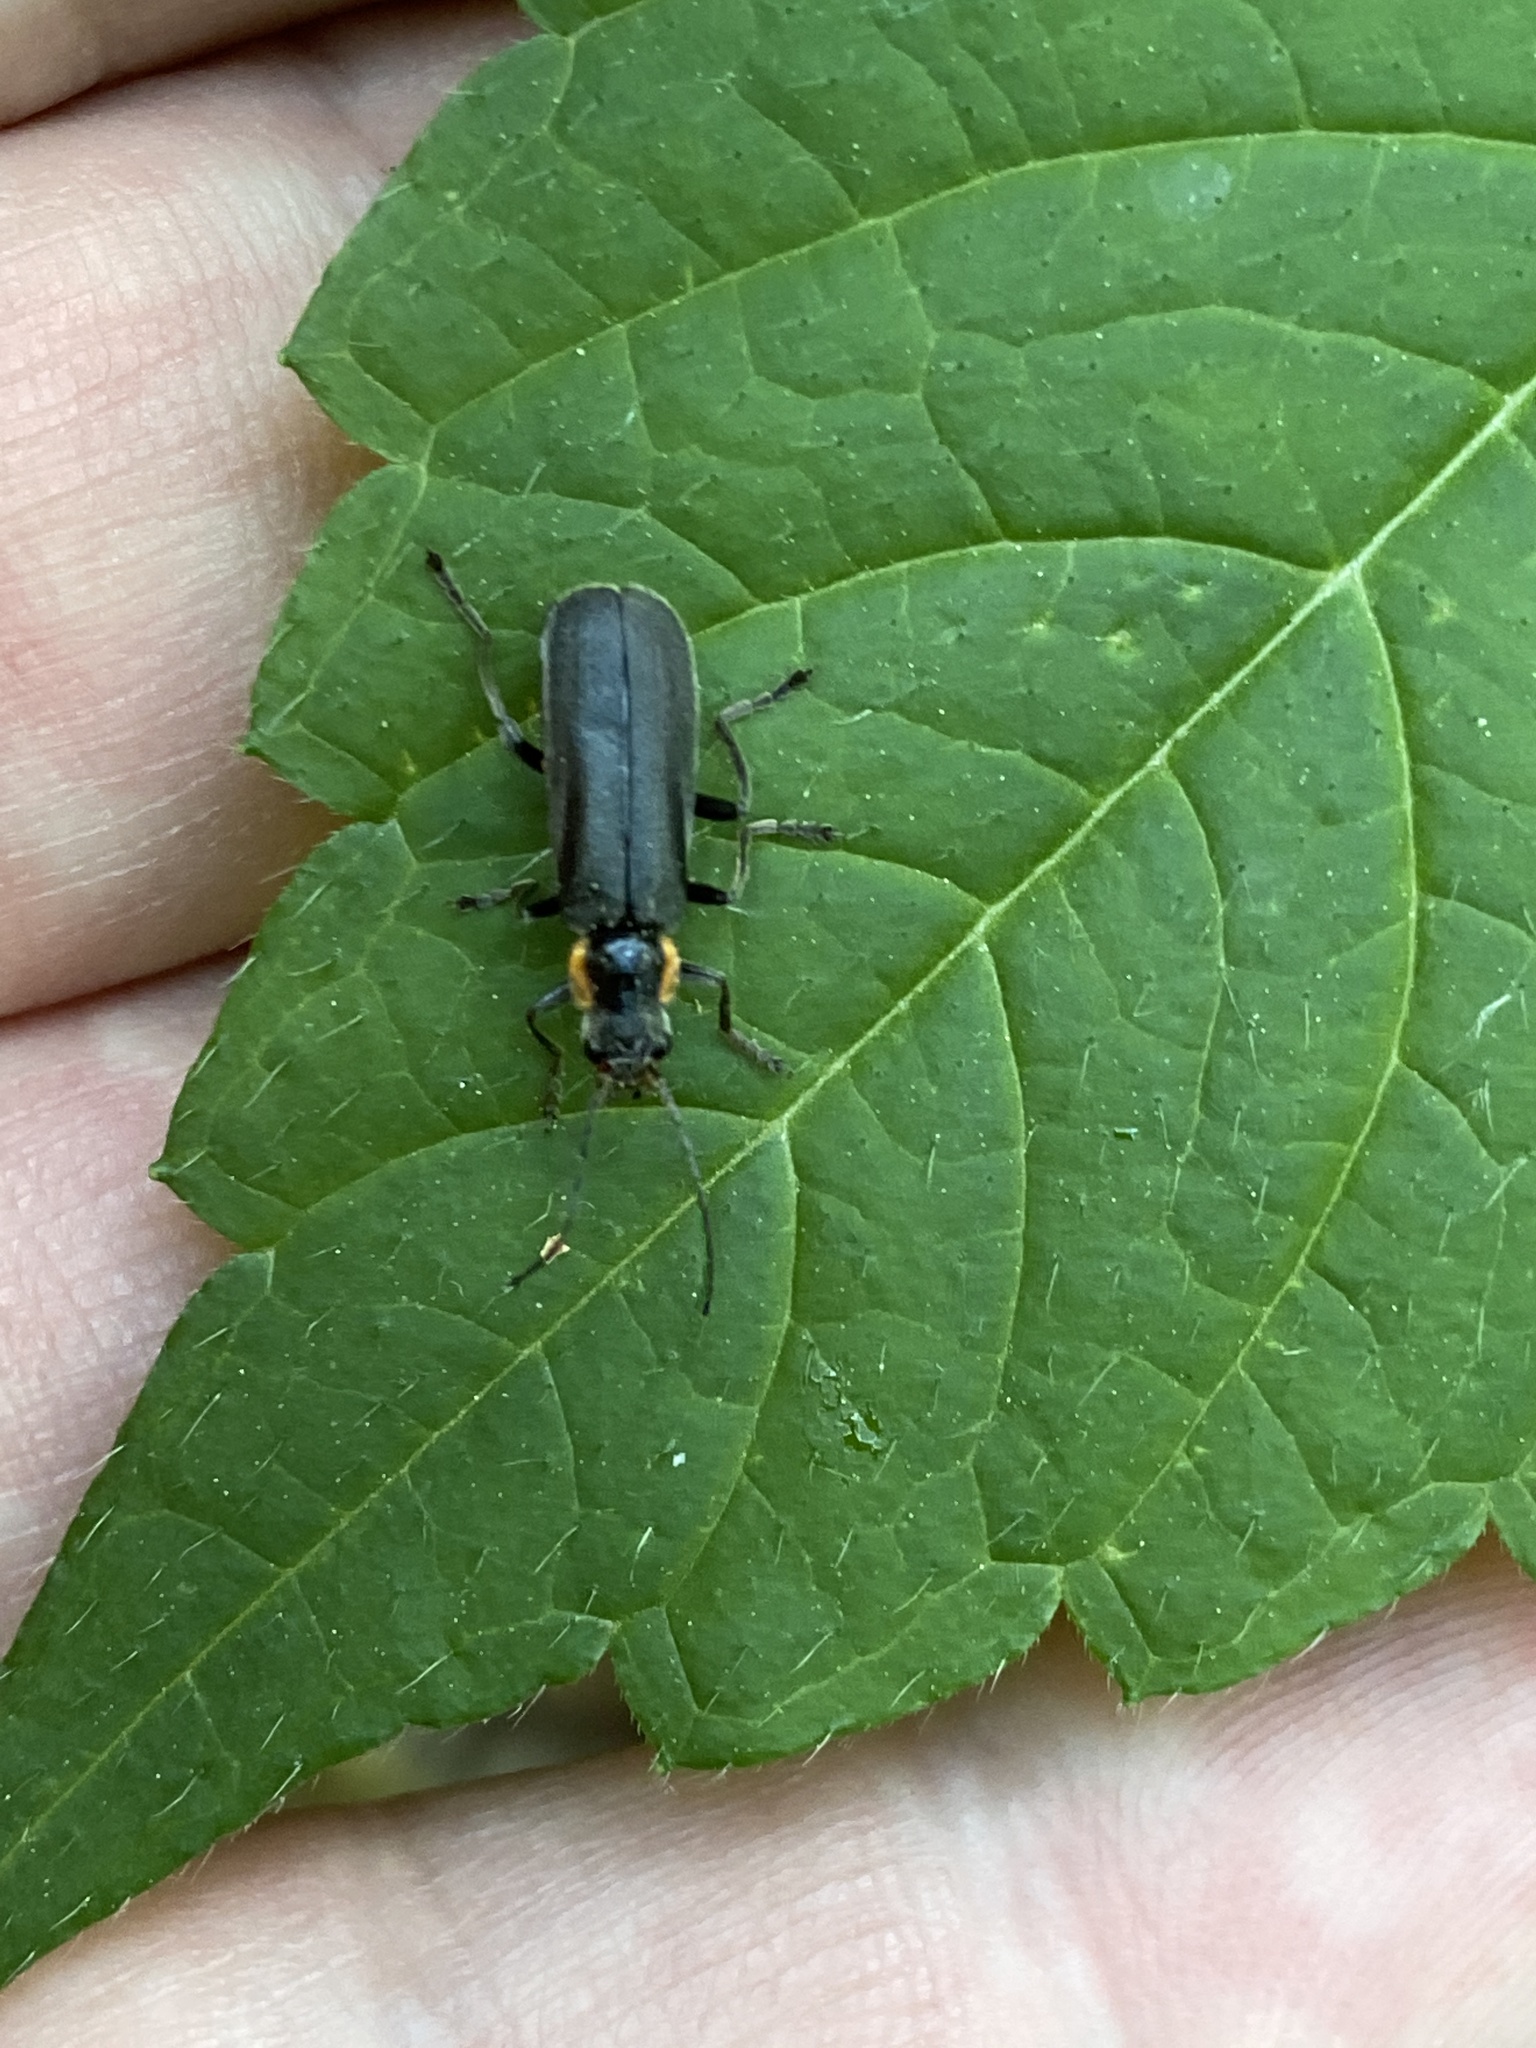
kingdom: Animalia
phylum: Arthropoda
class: Insecta
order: Coleoptera
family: Cantharidae
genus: Cantharis
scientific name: Cantharis
